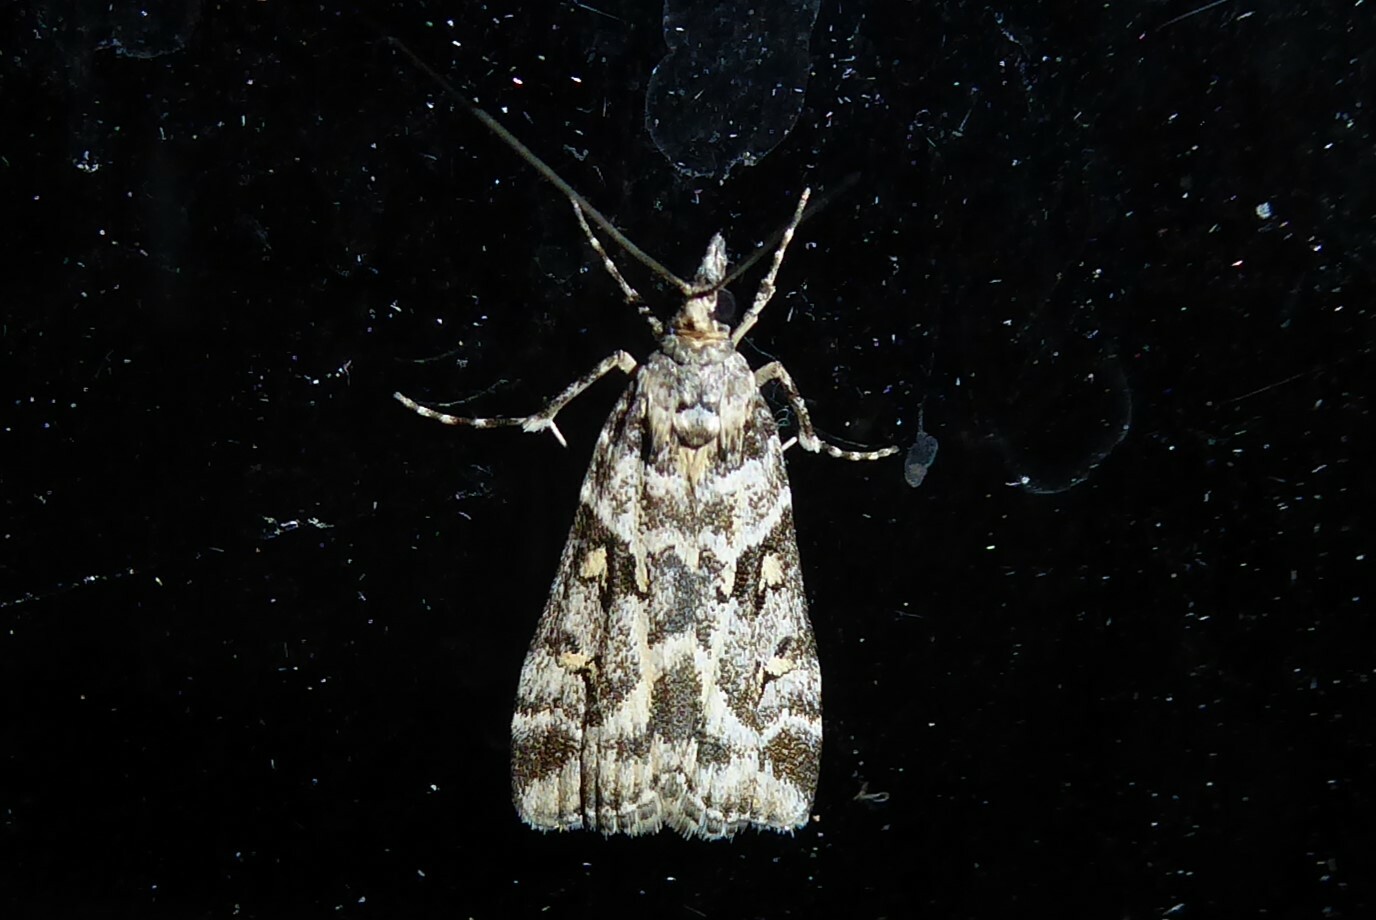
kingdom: Animalia
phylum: Arthropoda
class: Insecta
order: Lepidoptera
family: Crambidae
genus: Eudonia
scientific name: Eudonia diphtheralis
